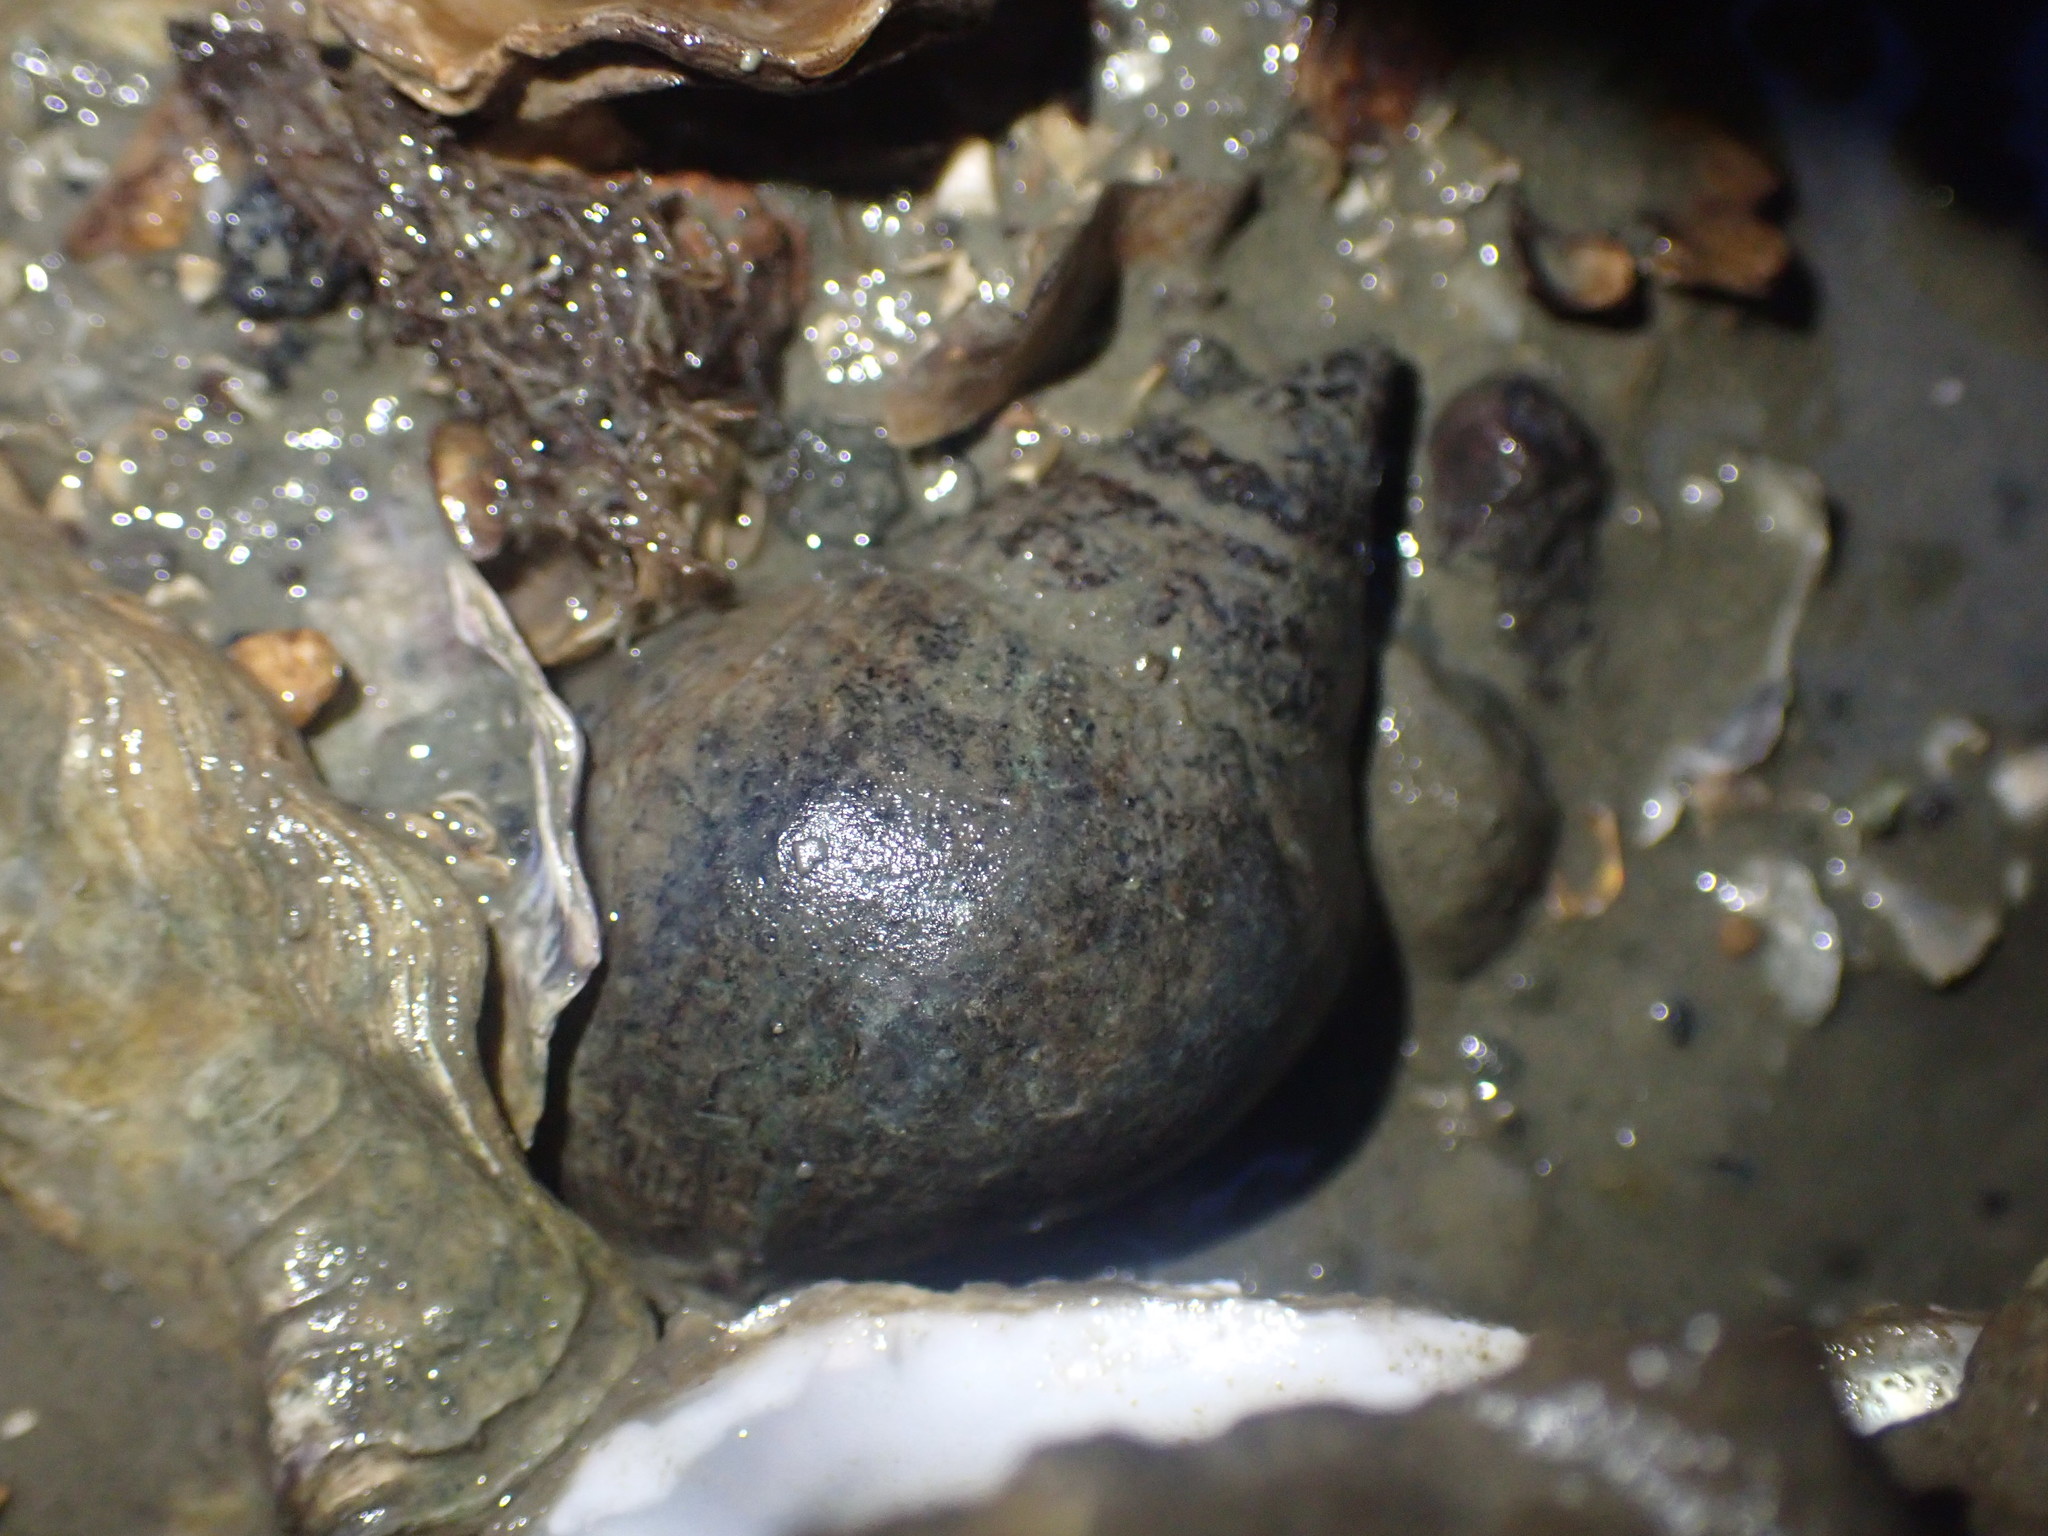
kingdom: Animalia
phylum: Mollusca
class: Gastropoda
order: Neogastropoda
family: Cominellidae
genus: Cominella
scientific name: Cominella adspersa
